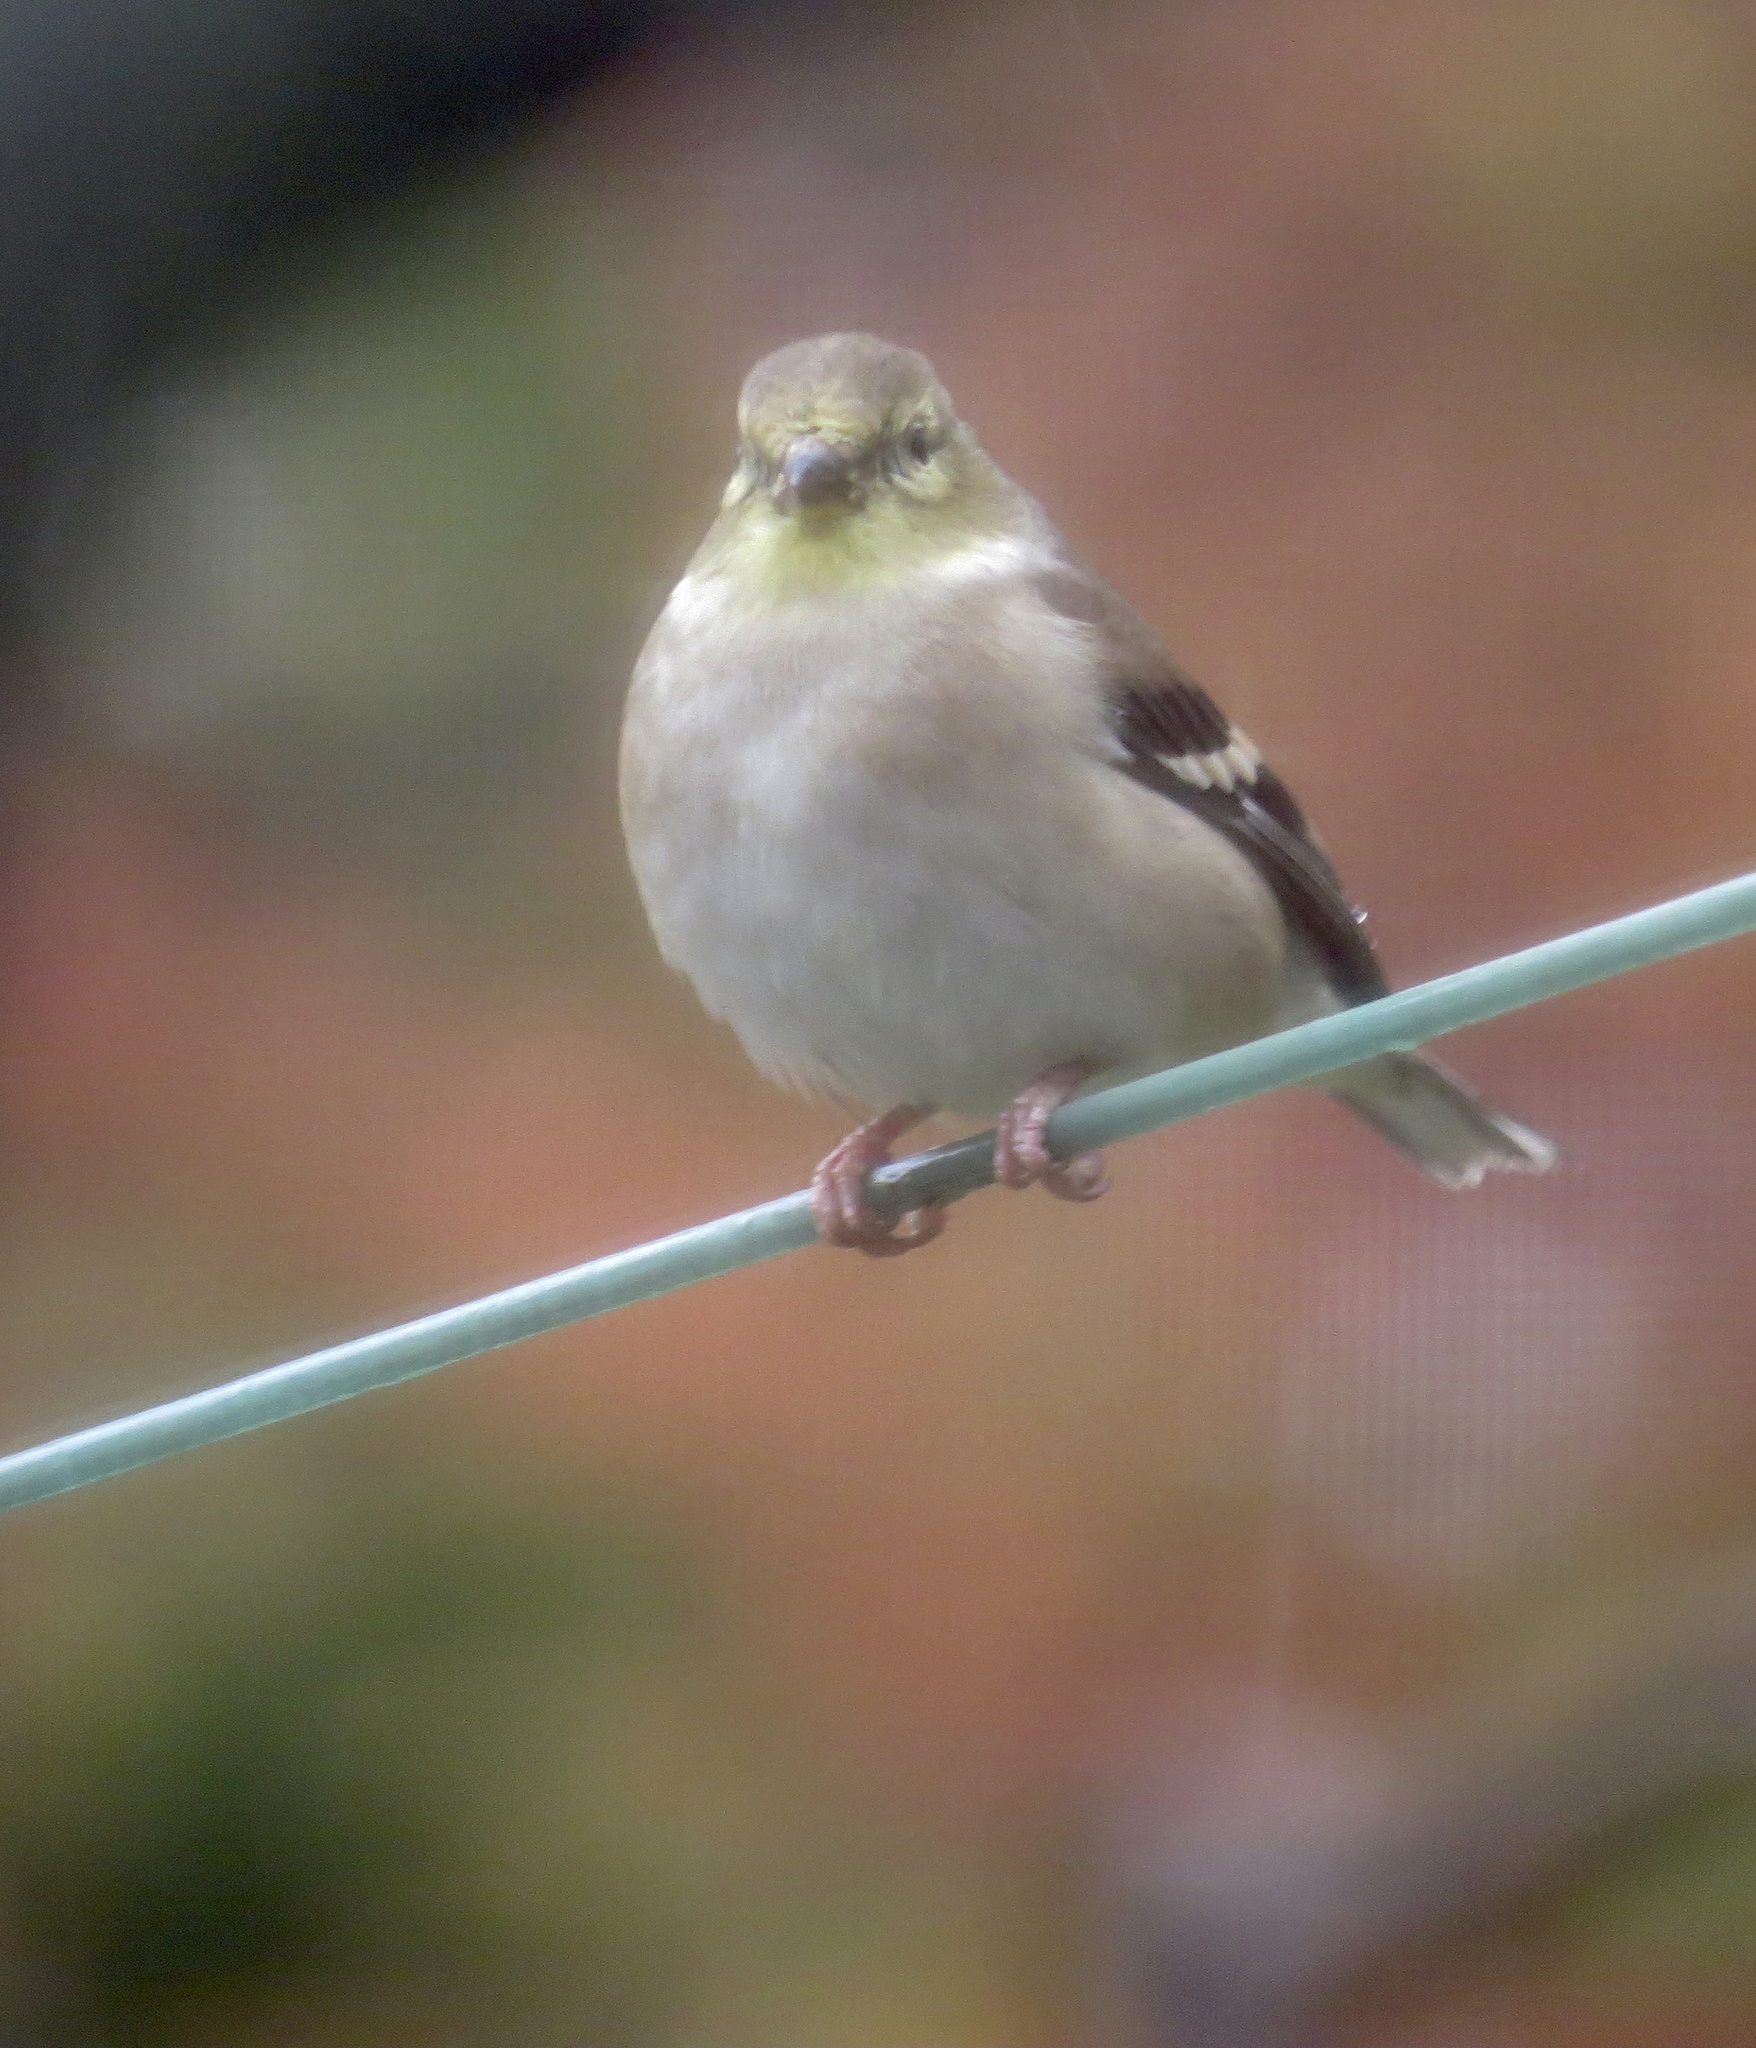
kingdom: Animalia
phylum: Chordata
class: Aves
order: Passeriformes
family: Fringillidae
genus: Spinus
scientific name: Spinus tristis
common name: American goldfinch
